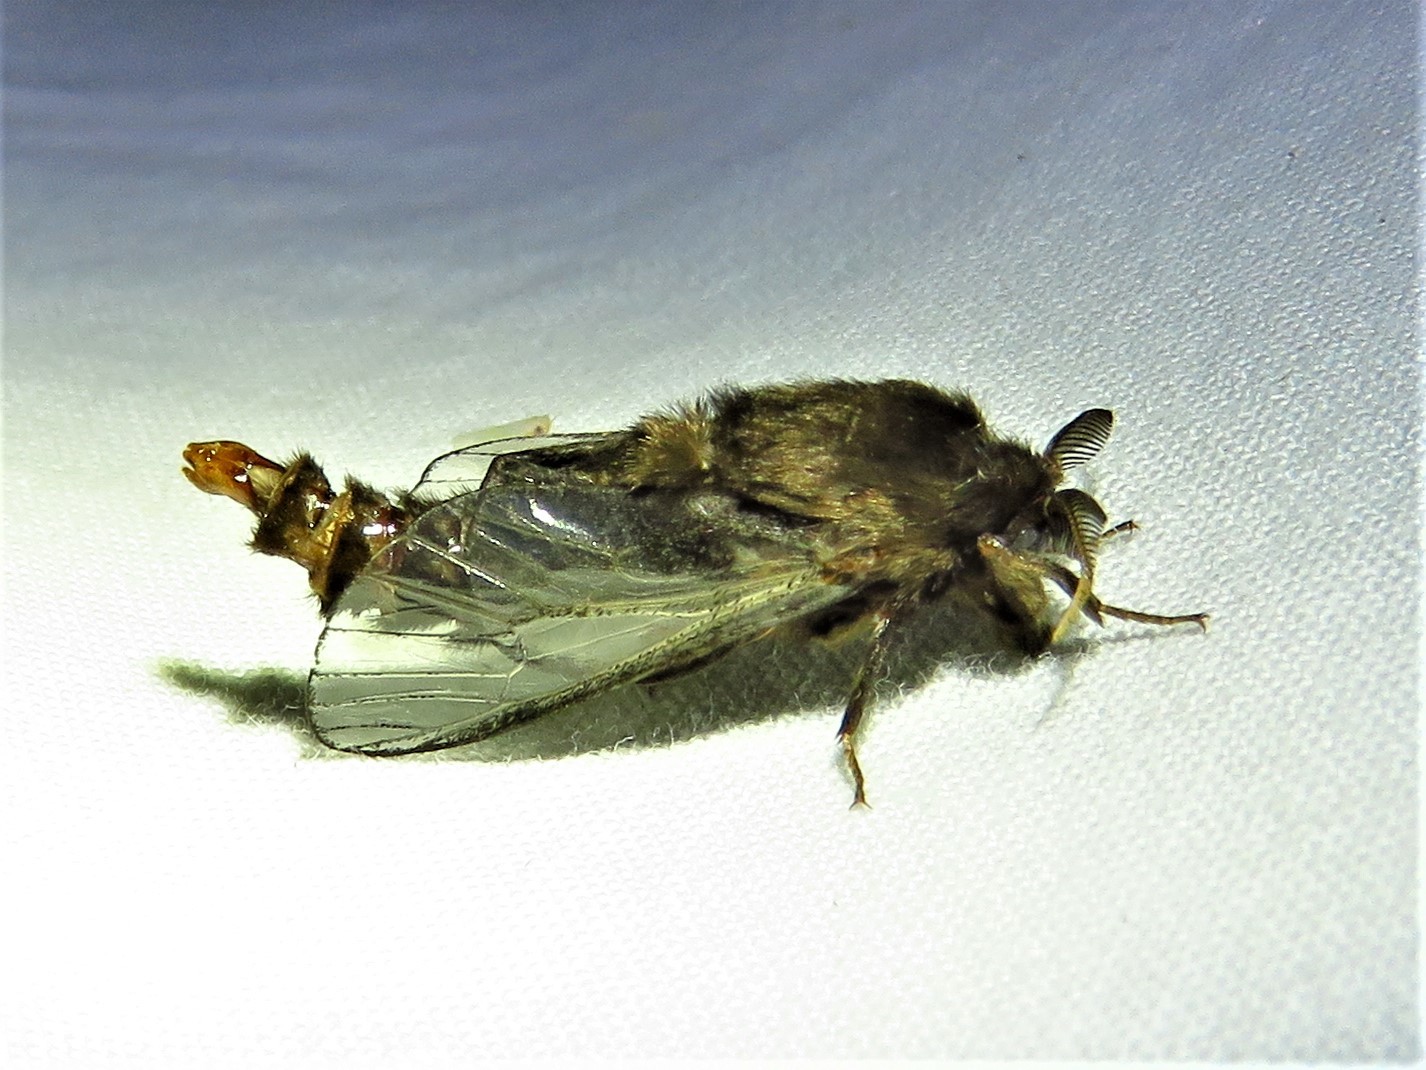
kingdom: Animalia
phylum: Arthropoda
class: Insecta
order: Lepidoptera
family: Psychidae
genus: Thyridopteryx
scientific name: Thyridopteryx ephemeraeformis
